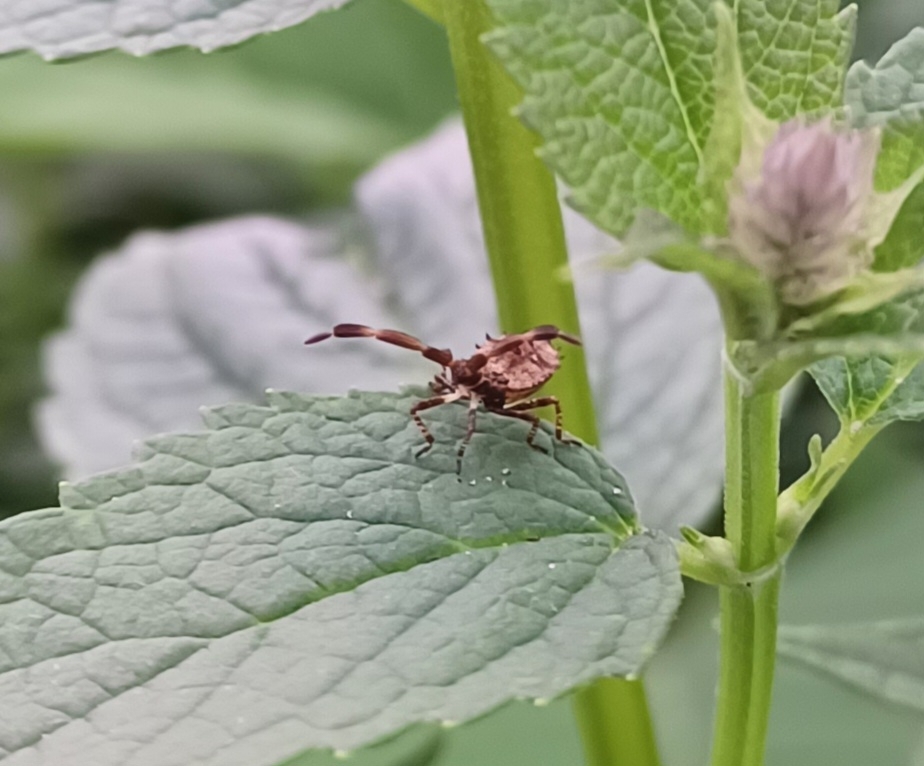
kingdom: Animalia
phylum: Arthropoda
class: Insecta
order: Hemiptera
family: Coreidae
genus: Coreus
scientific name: Coreus marginatus
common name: Dock bug
